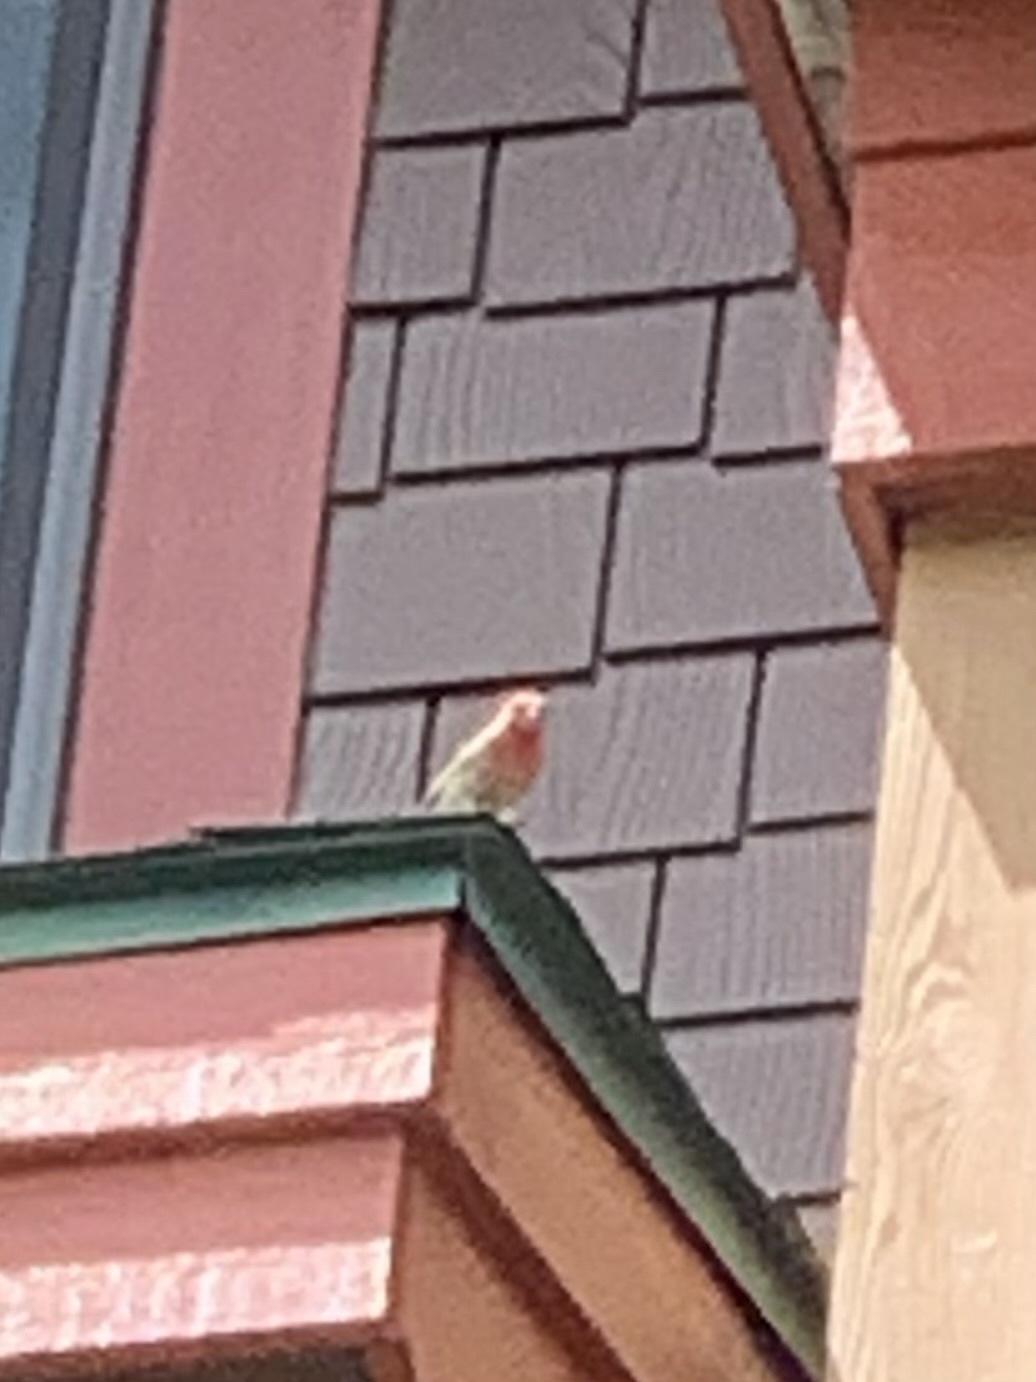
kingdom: Animalia
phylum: Chordata
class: Aves
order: Passeriformes
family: Fringillidae
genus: Haemorhous
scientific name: Haemorhous mexicanus
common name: House finch
